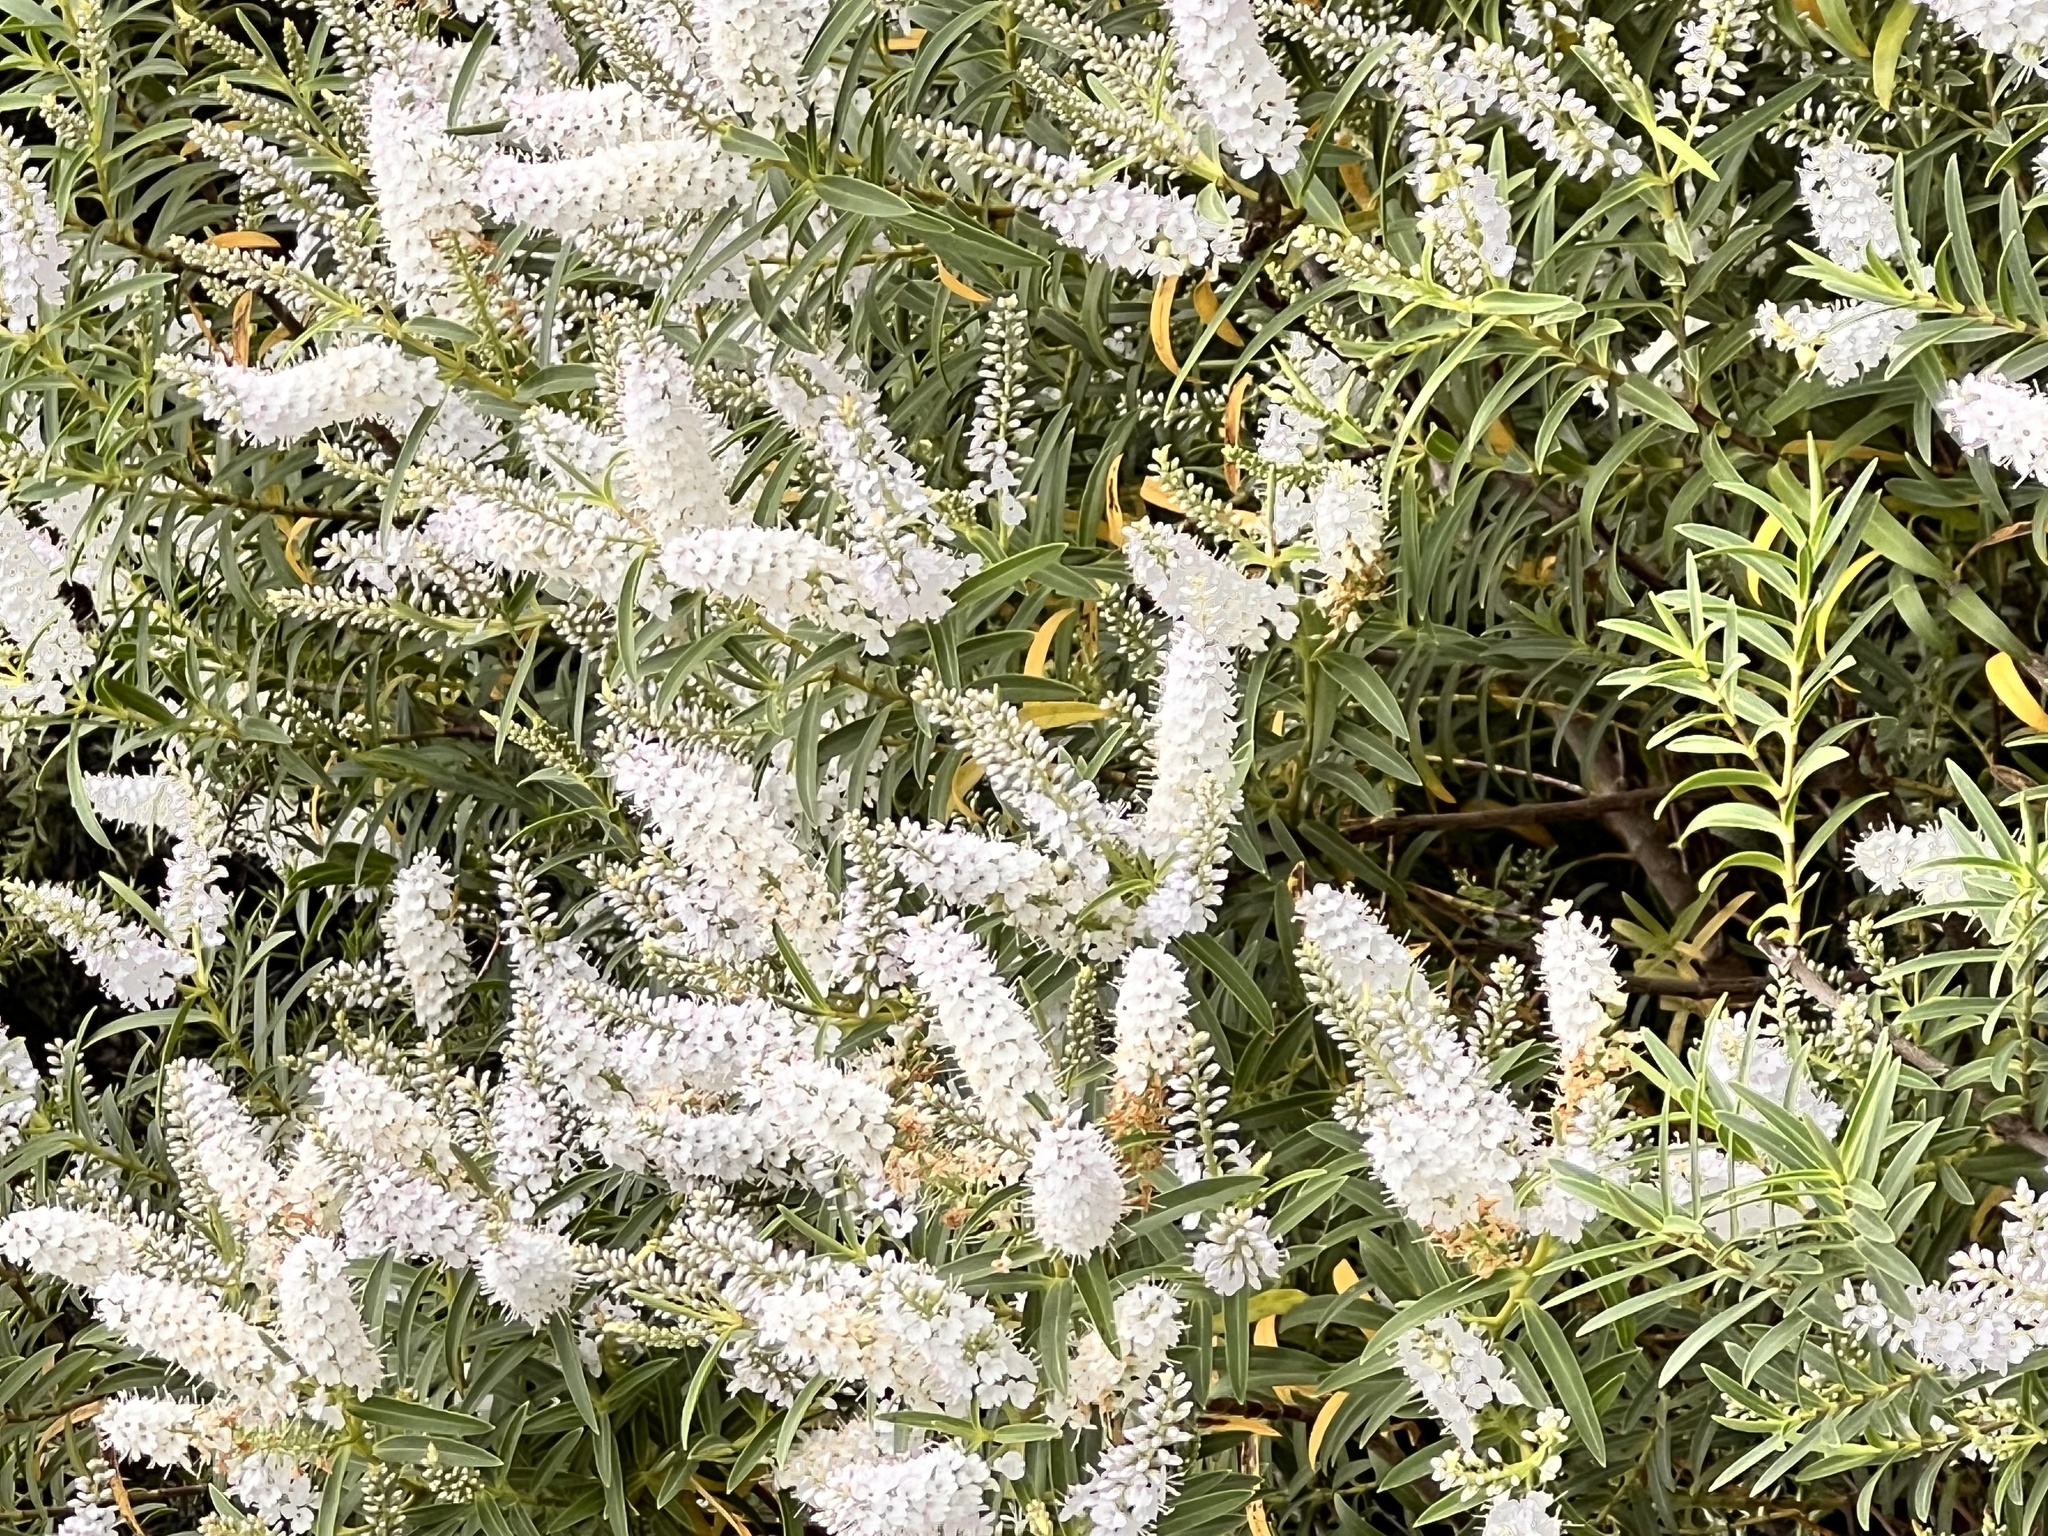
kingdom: Plantae
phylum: Tracheophyta
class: Magnoliopsida
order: Lamiales
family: Plantaginaceae
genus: Veronica
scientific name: Veronica salicifolia
